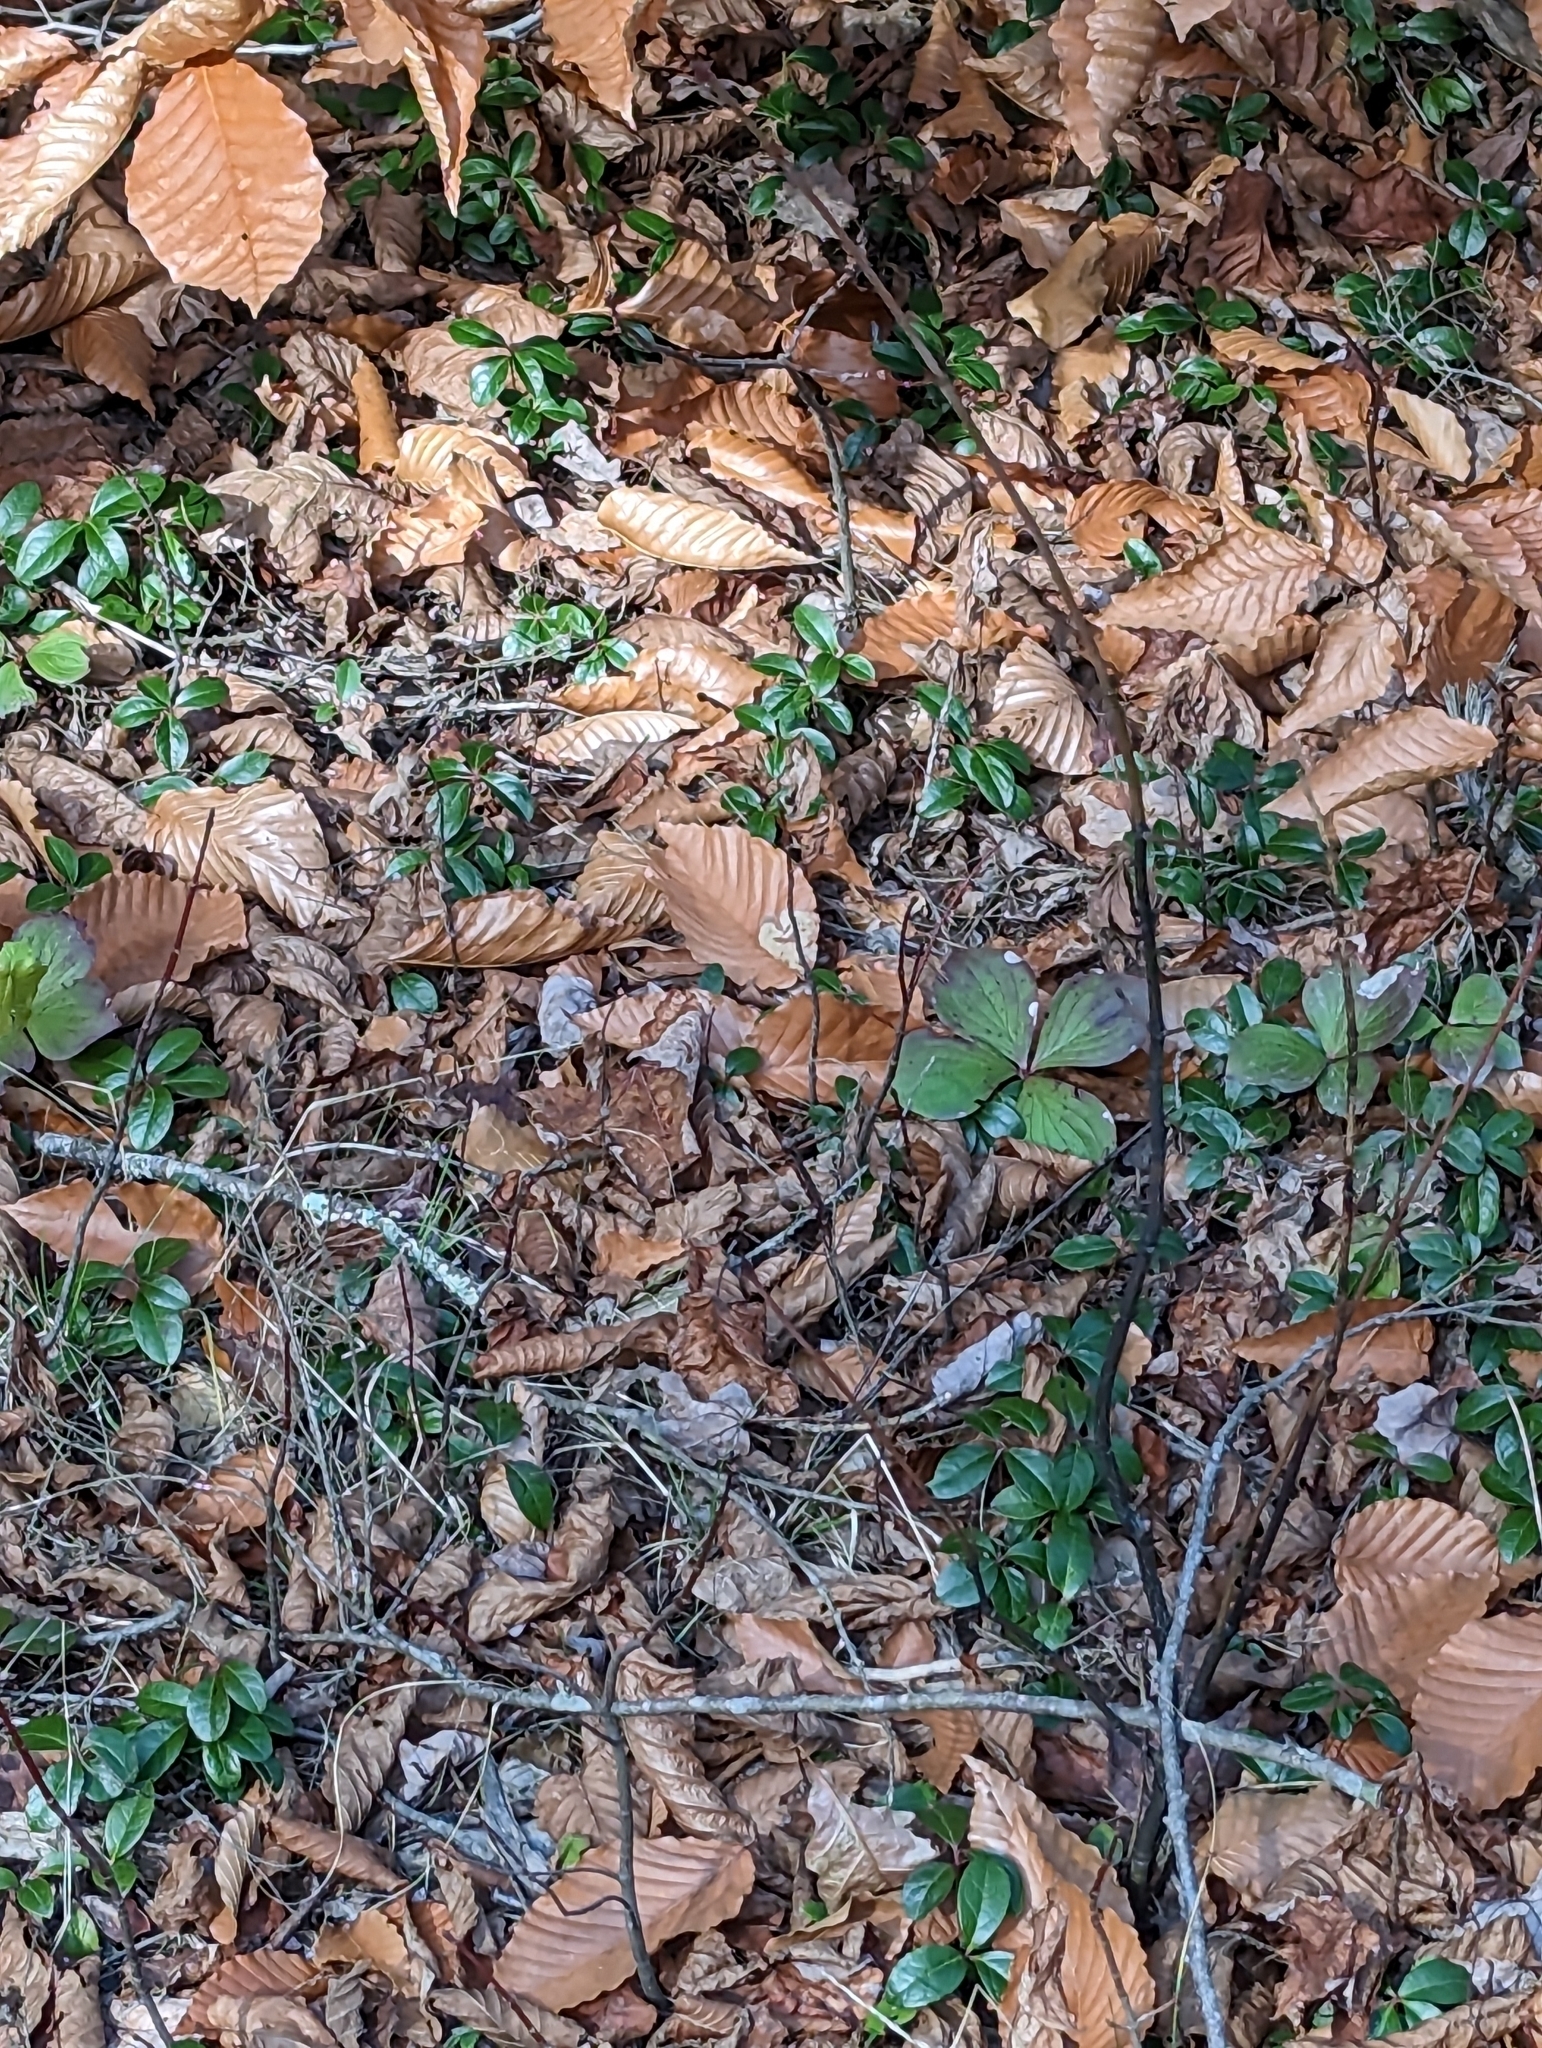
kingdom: Plantae
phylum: Tracheophyta
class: Magnoliopsida
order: Ericales
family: Ericaceae
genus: Gaultheria
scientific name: Gaultheria procumbens
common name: Checkerberry
